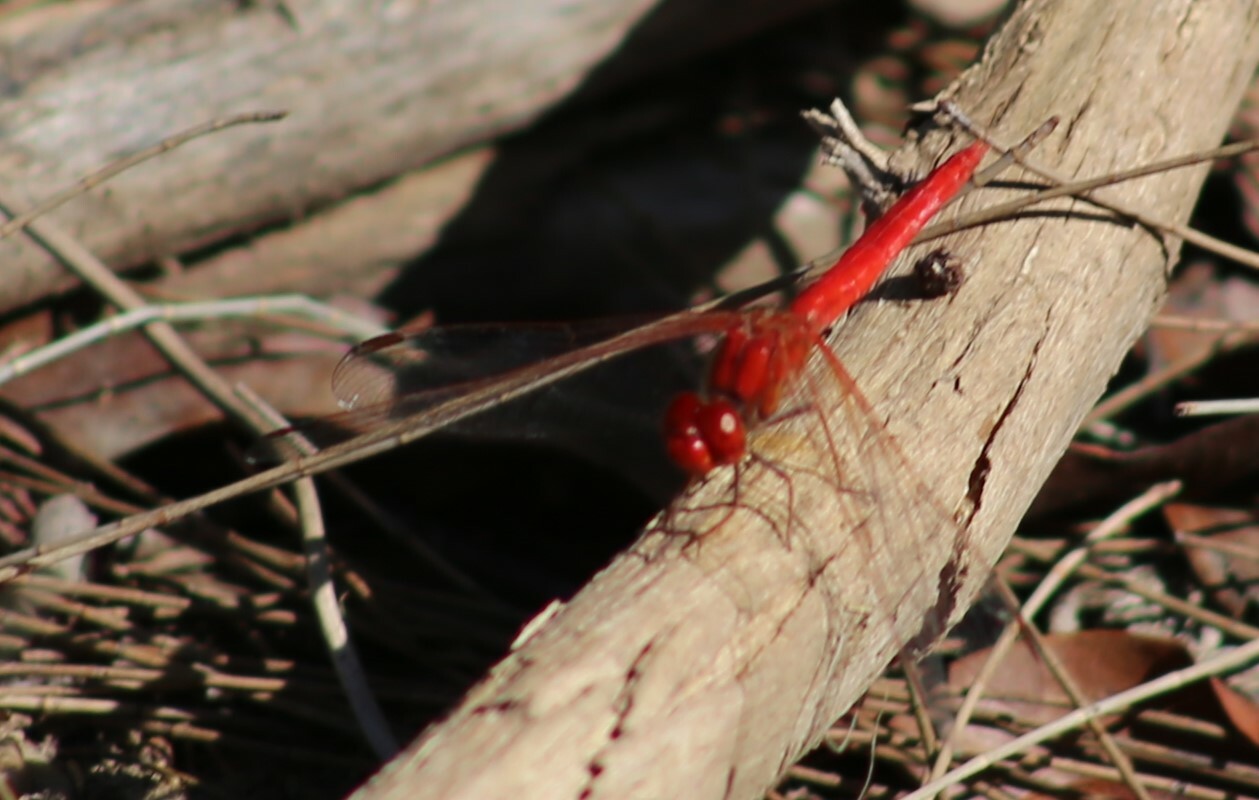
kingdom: Animalia
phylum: Arthropoda
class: Insecta
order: Odonata
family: Libellulidae
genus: Diplacodes
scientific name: Diplacodes haematodes
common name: Scarlet percher
